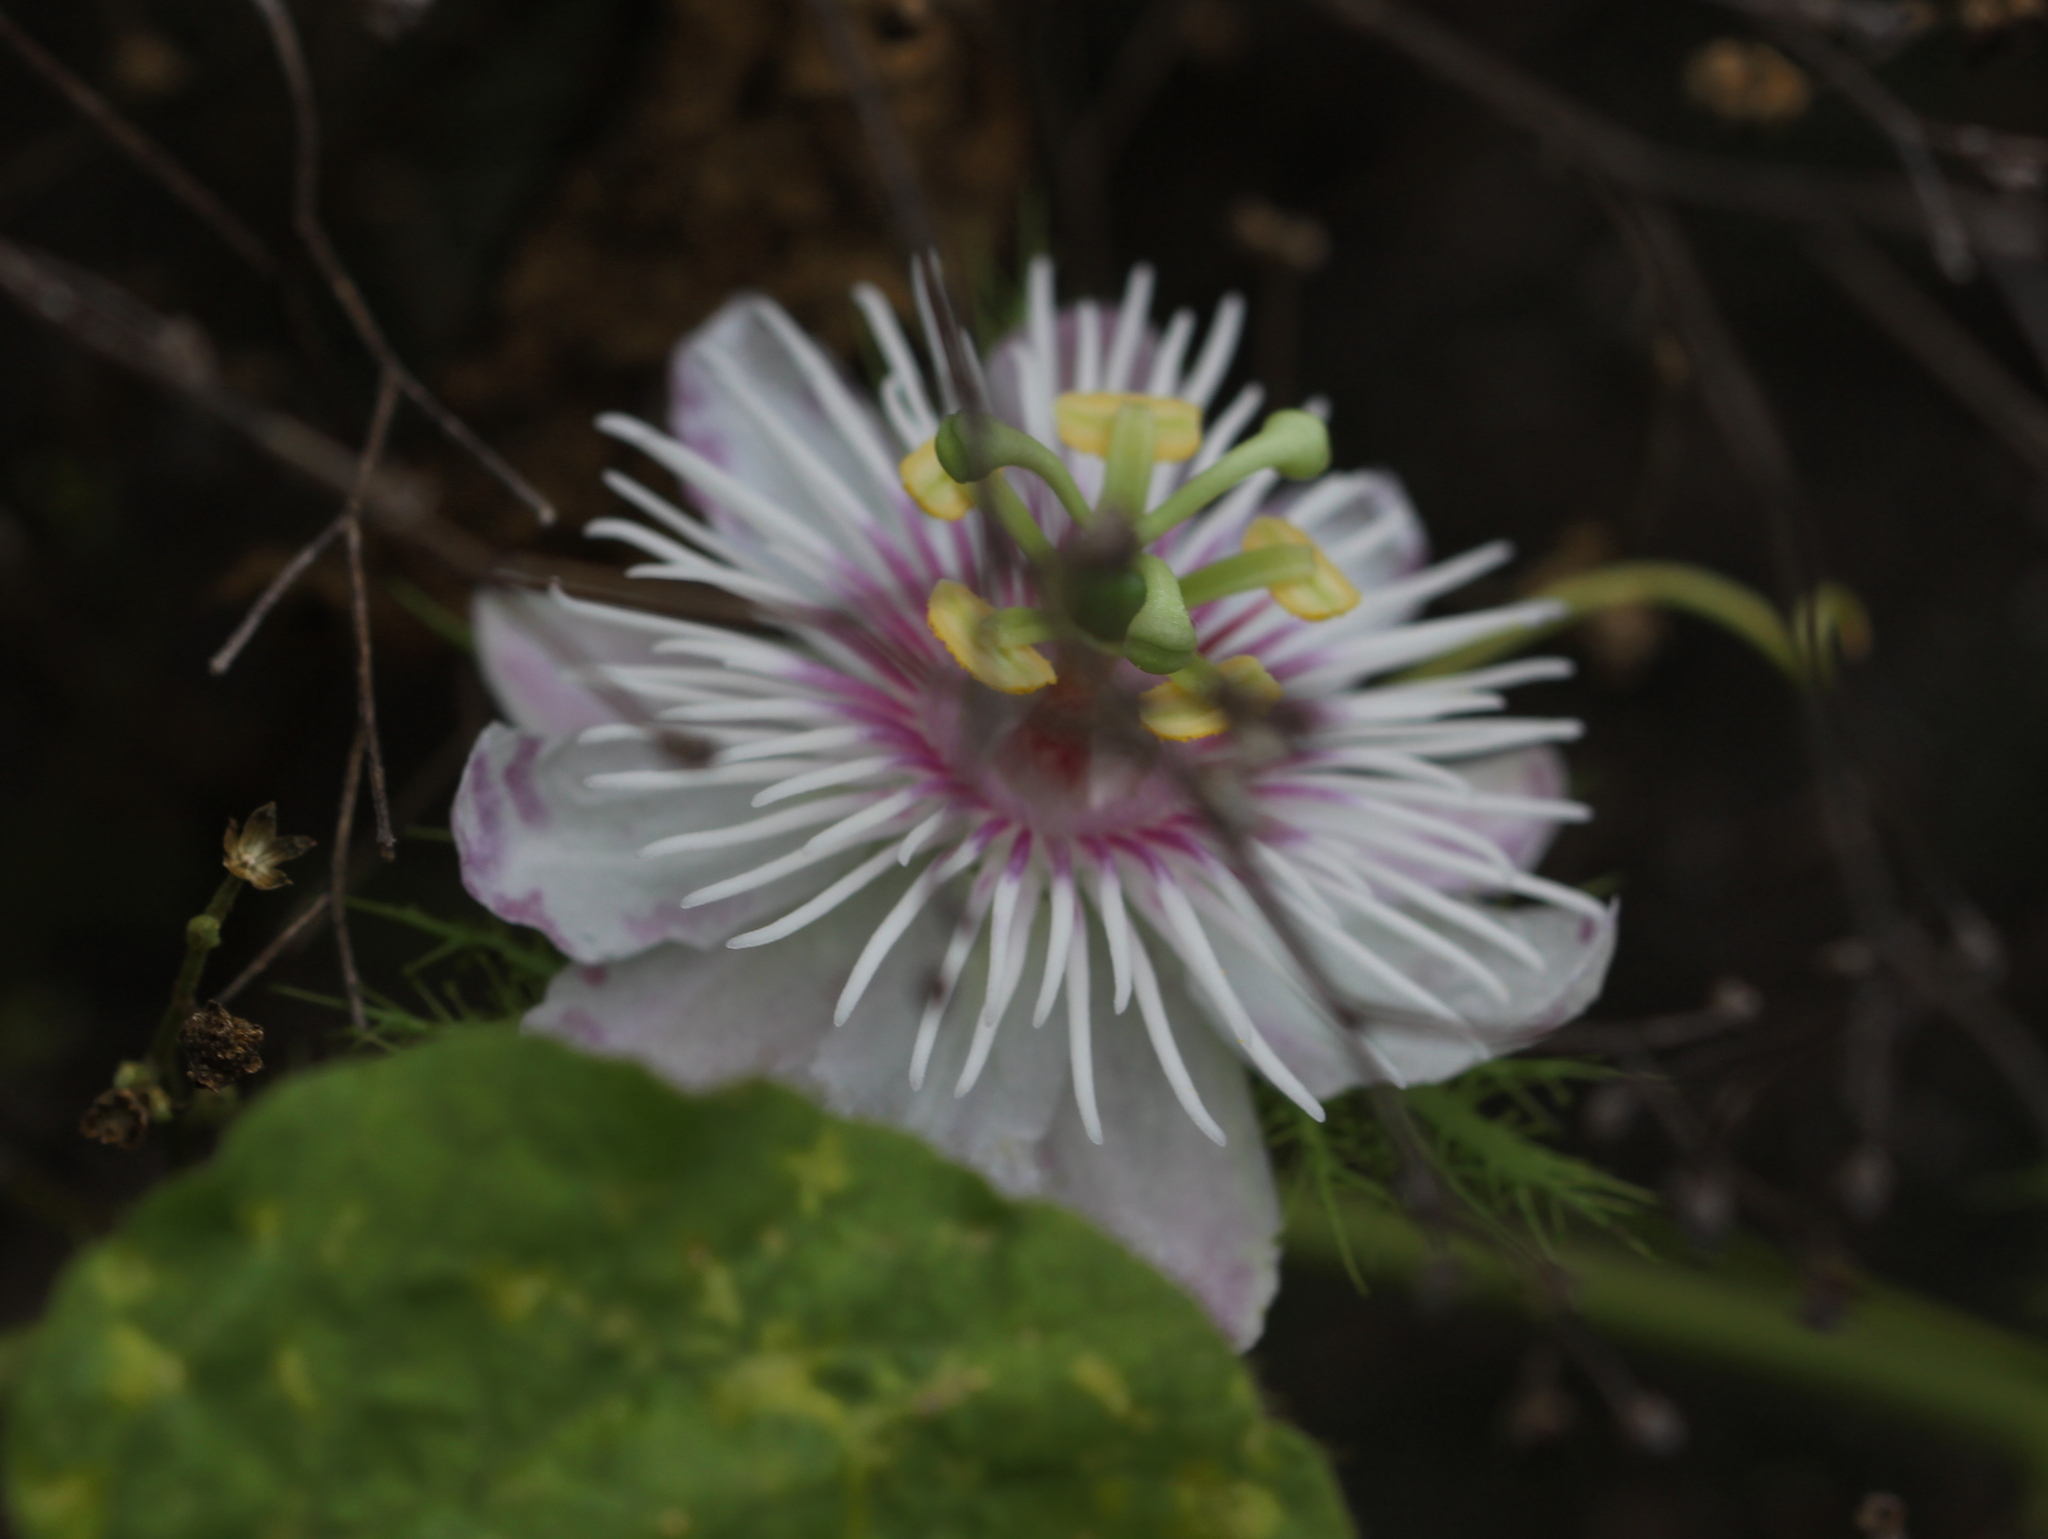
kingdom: Plantae
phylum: Tracheophyta
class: Magnoliopsida
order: Malpighiales
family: Passifloraceae
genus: Passiflora
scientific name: Passiflora vesicaria
